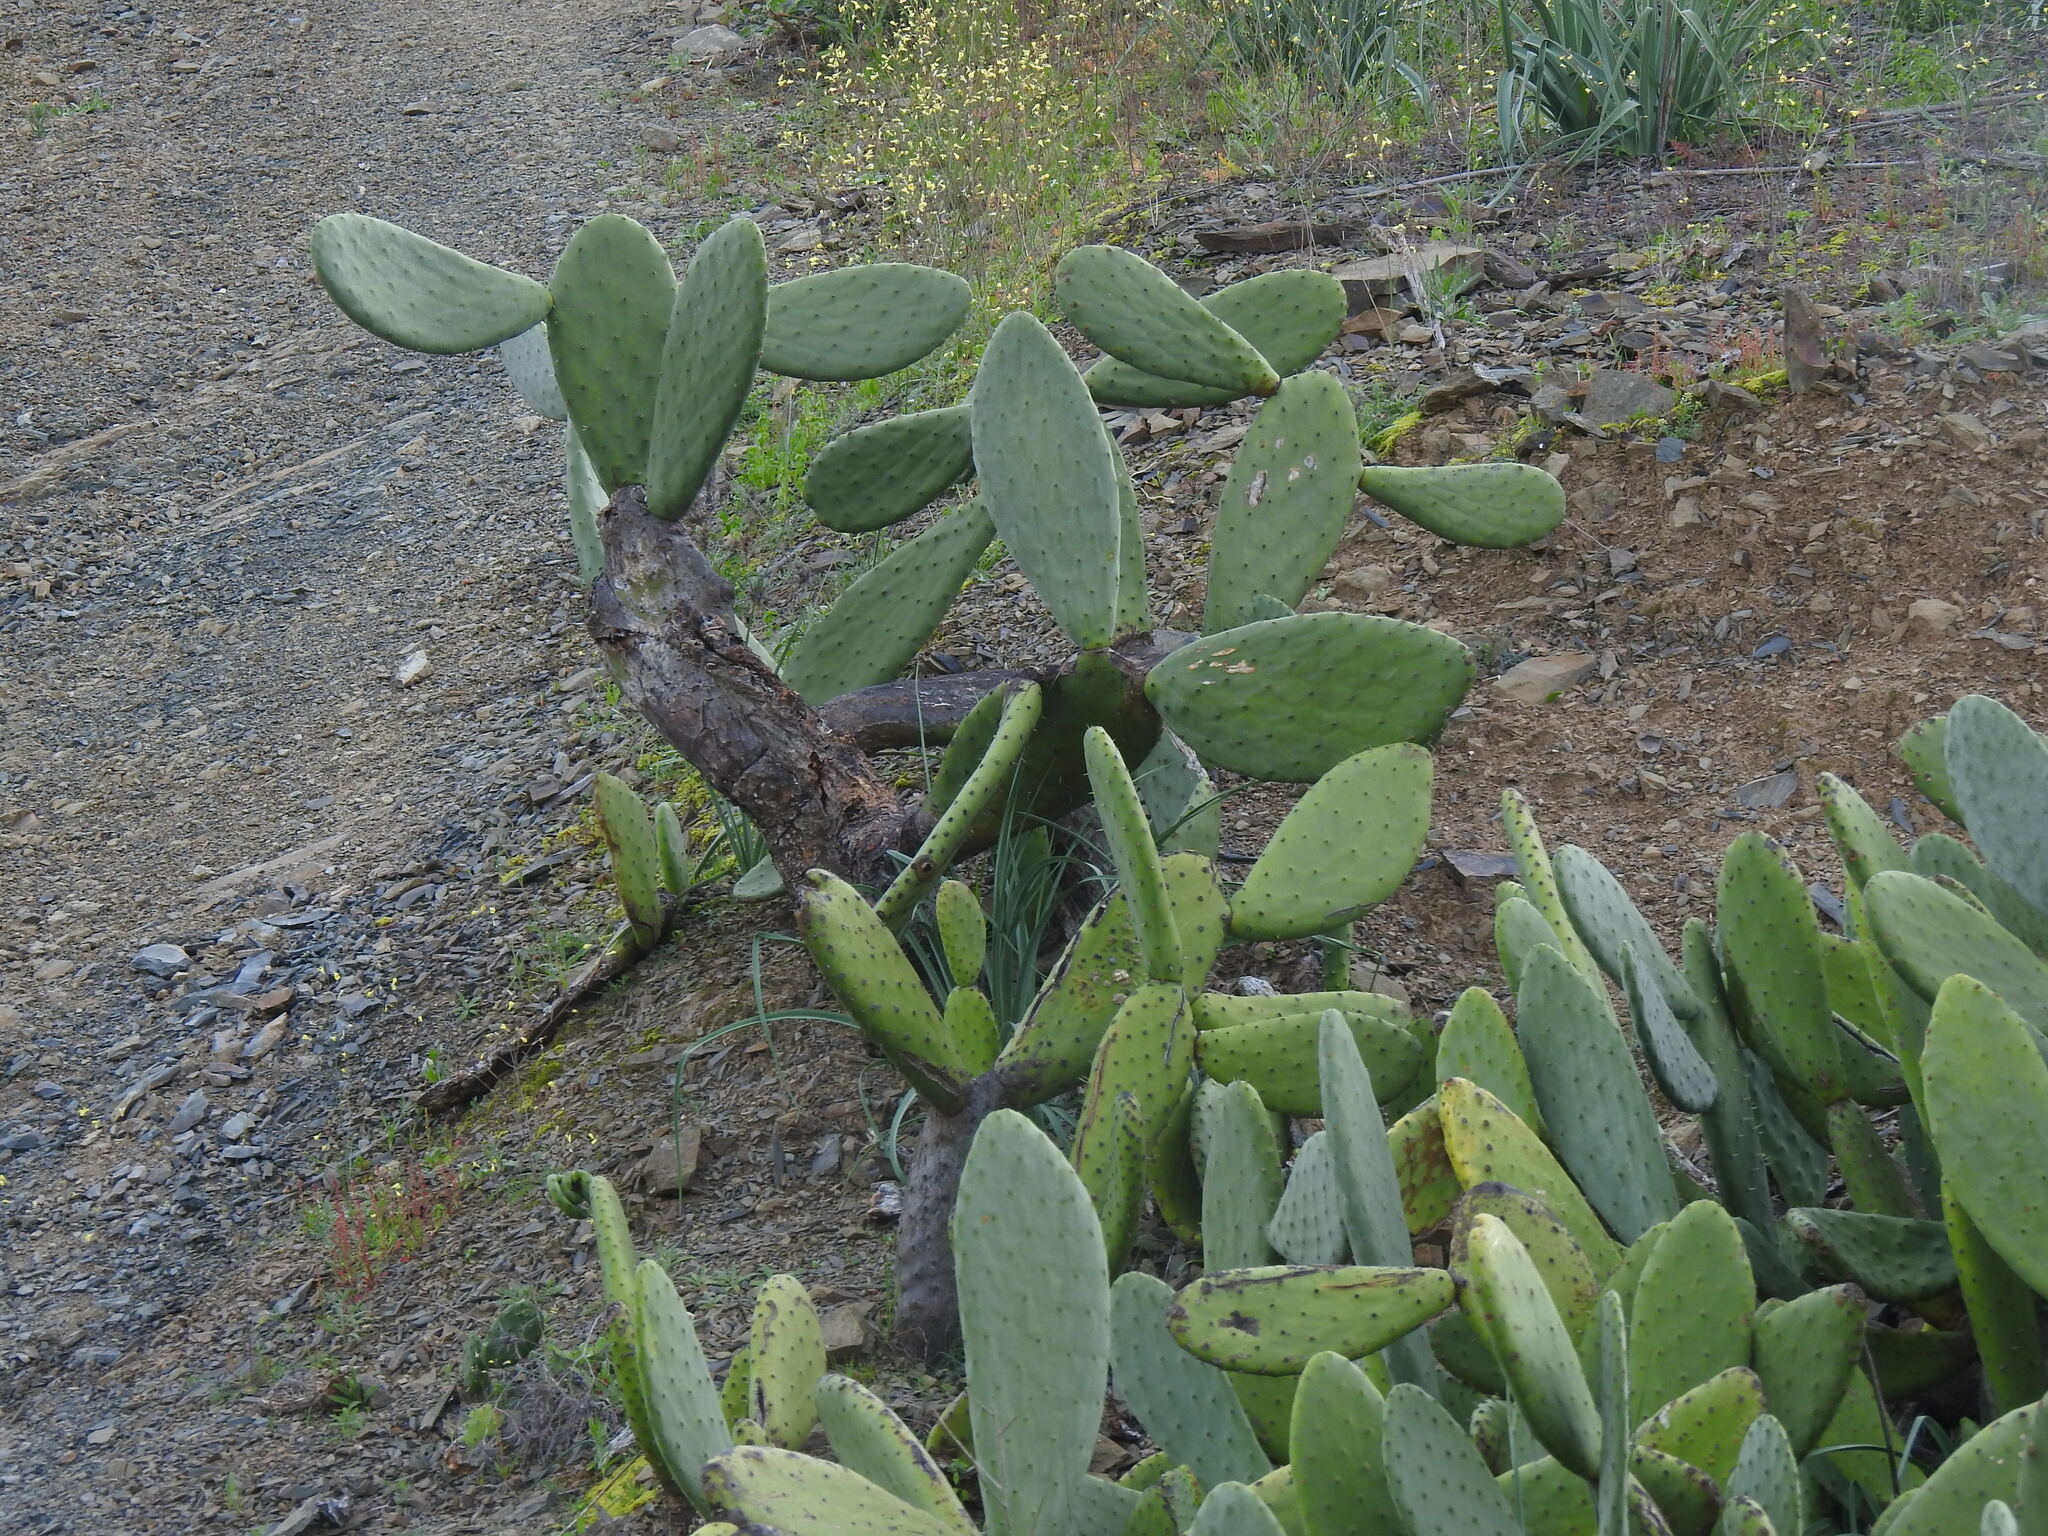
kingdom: Plantae
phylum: Tracheophyta
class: Magnoliopsida
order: Caryophyllales
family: Cactaceae
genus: Opuntia
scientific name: Opuntia ficus-indica
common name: Barbary fig
